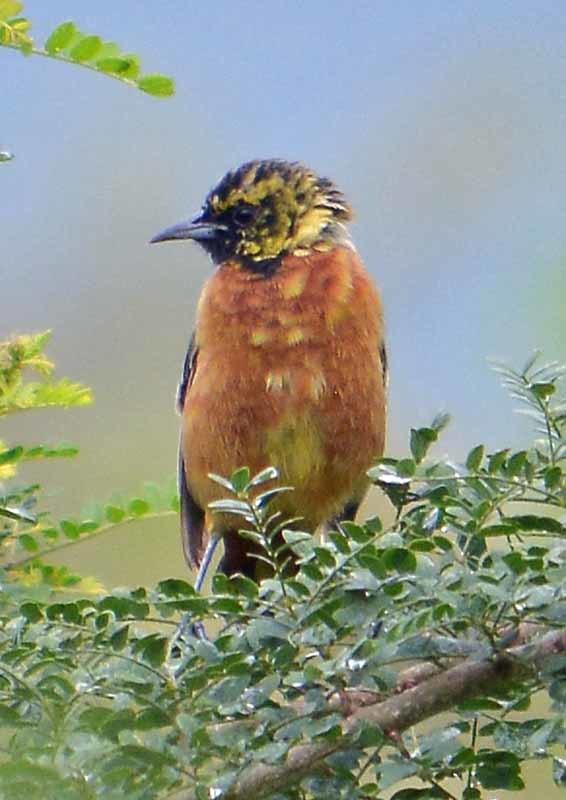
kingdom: Animalia
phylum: Chordata
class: Aves
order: Passeriformes
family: Icteridae
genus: Icterus
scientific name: Icterus spurius
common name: Orchard oriole
